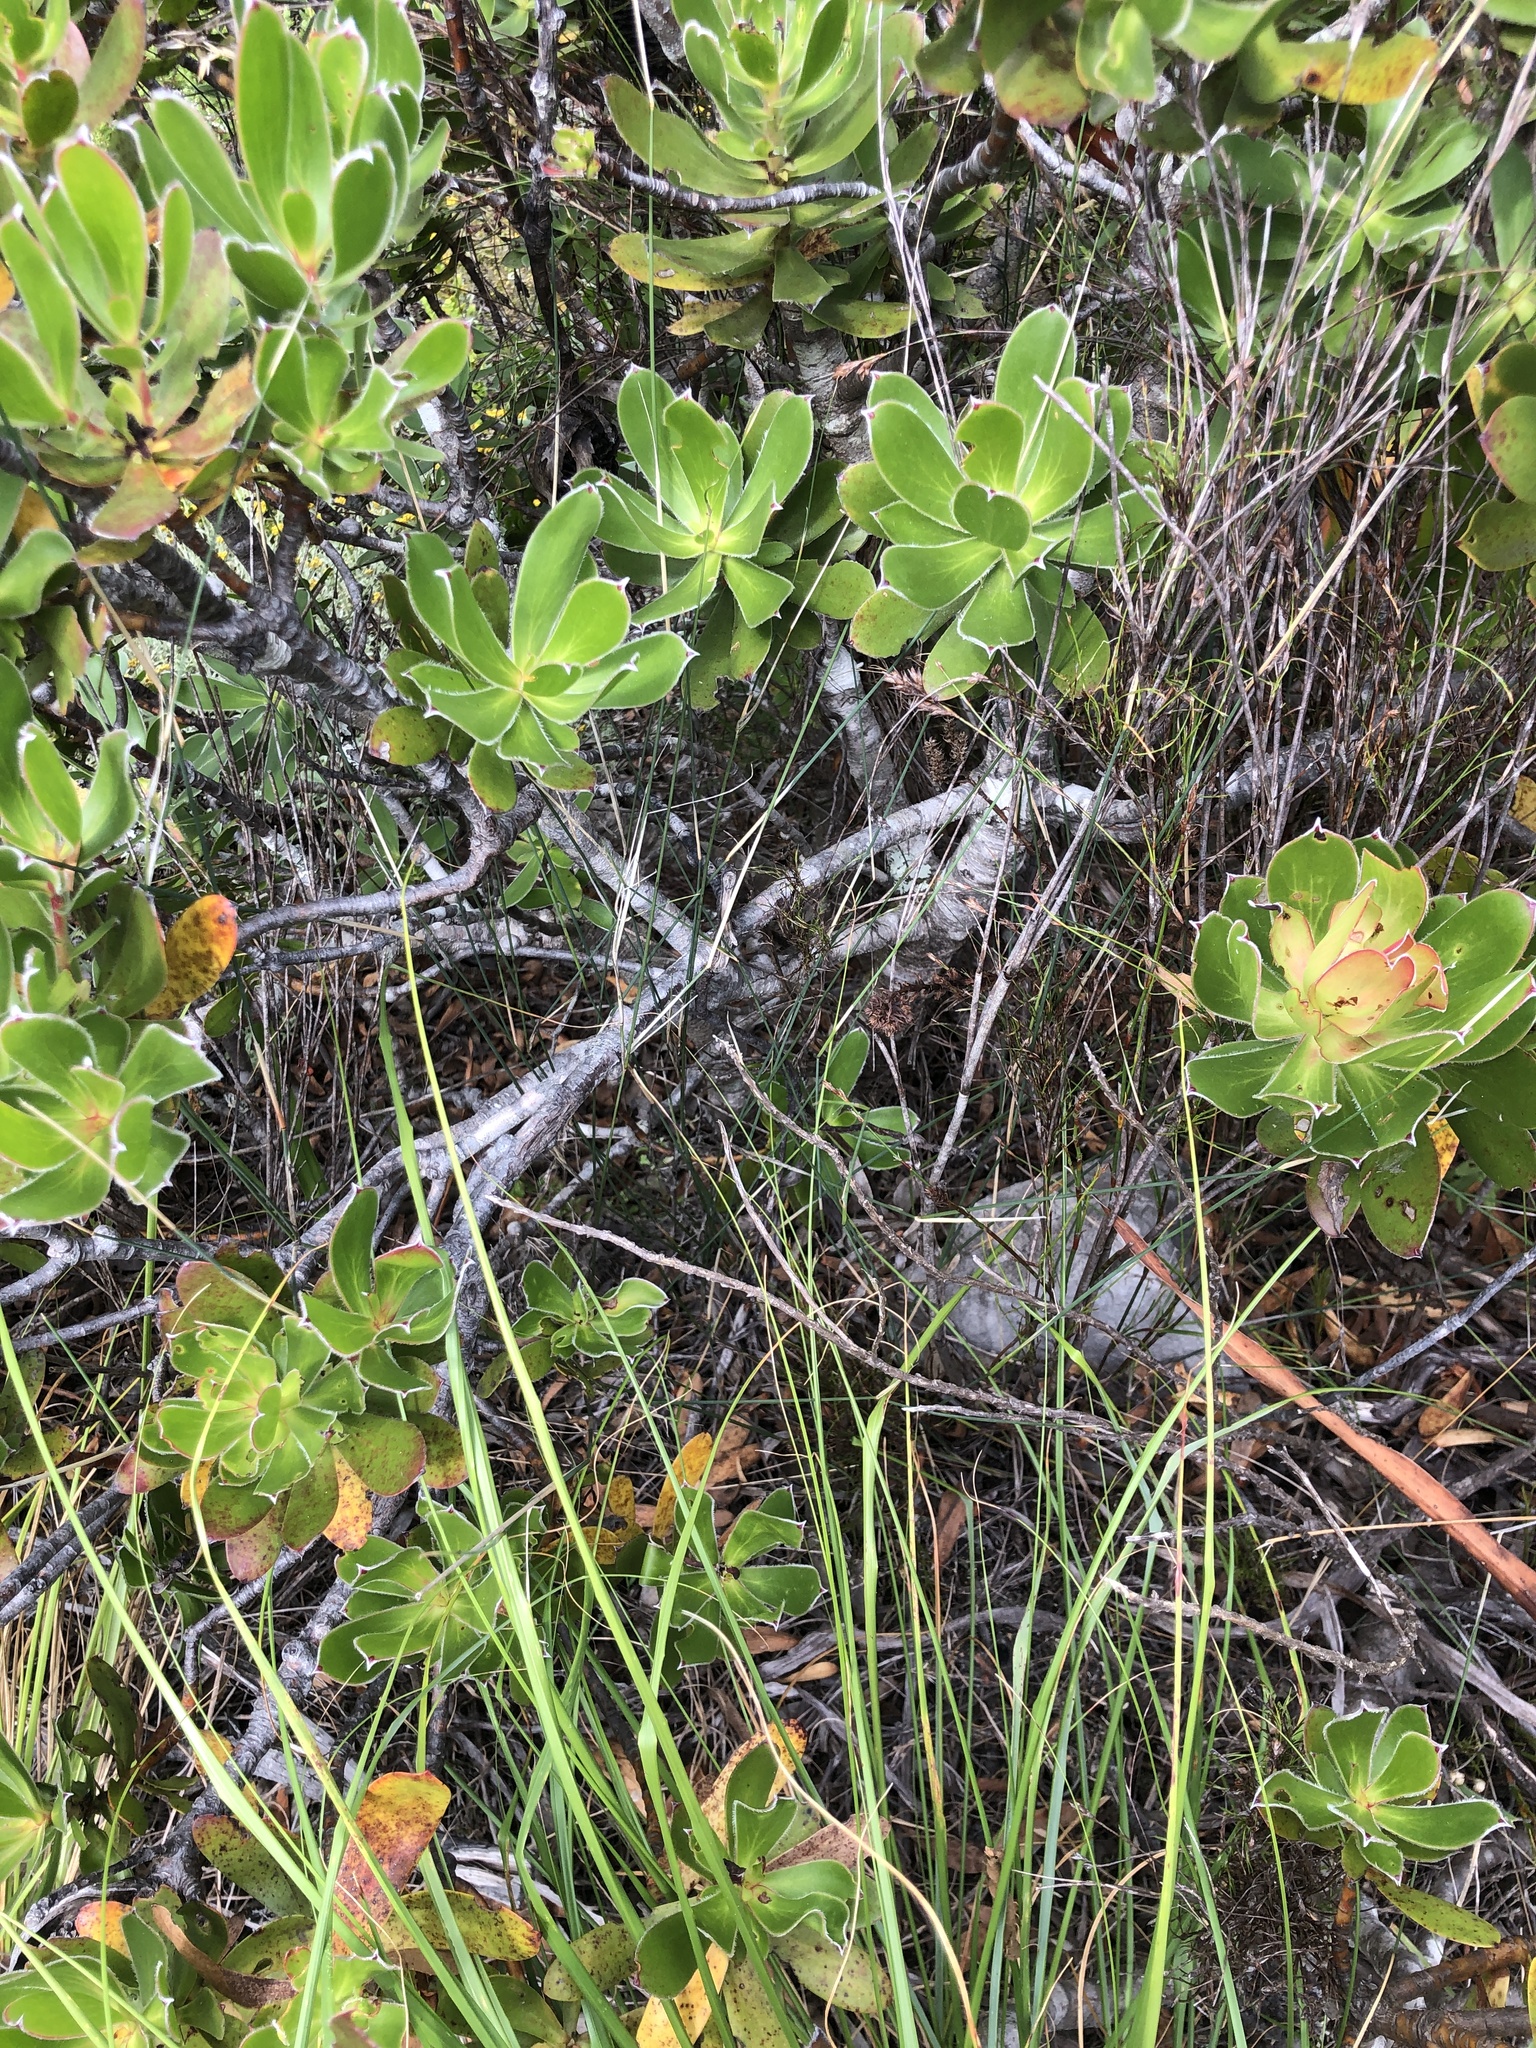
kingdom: Plantae
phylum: Tracheophyta
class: Magnoliopsida
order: Proteales
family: Proteaceae
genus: Leucadendron
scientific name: Leucadendron strobilinum
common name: Mountain rose
